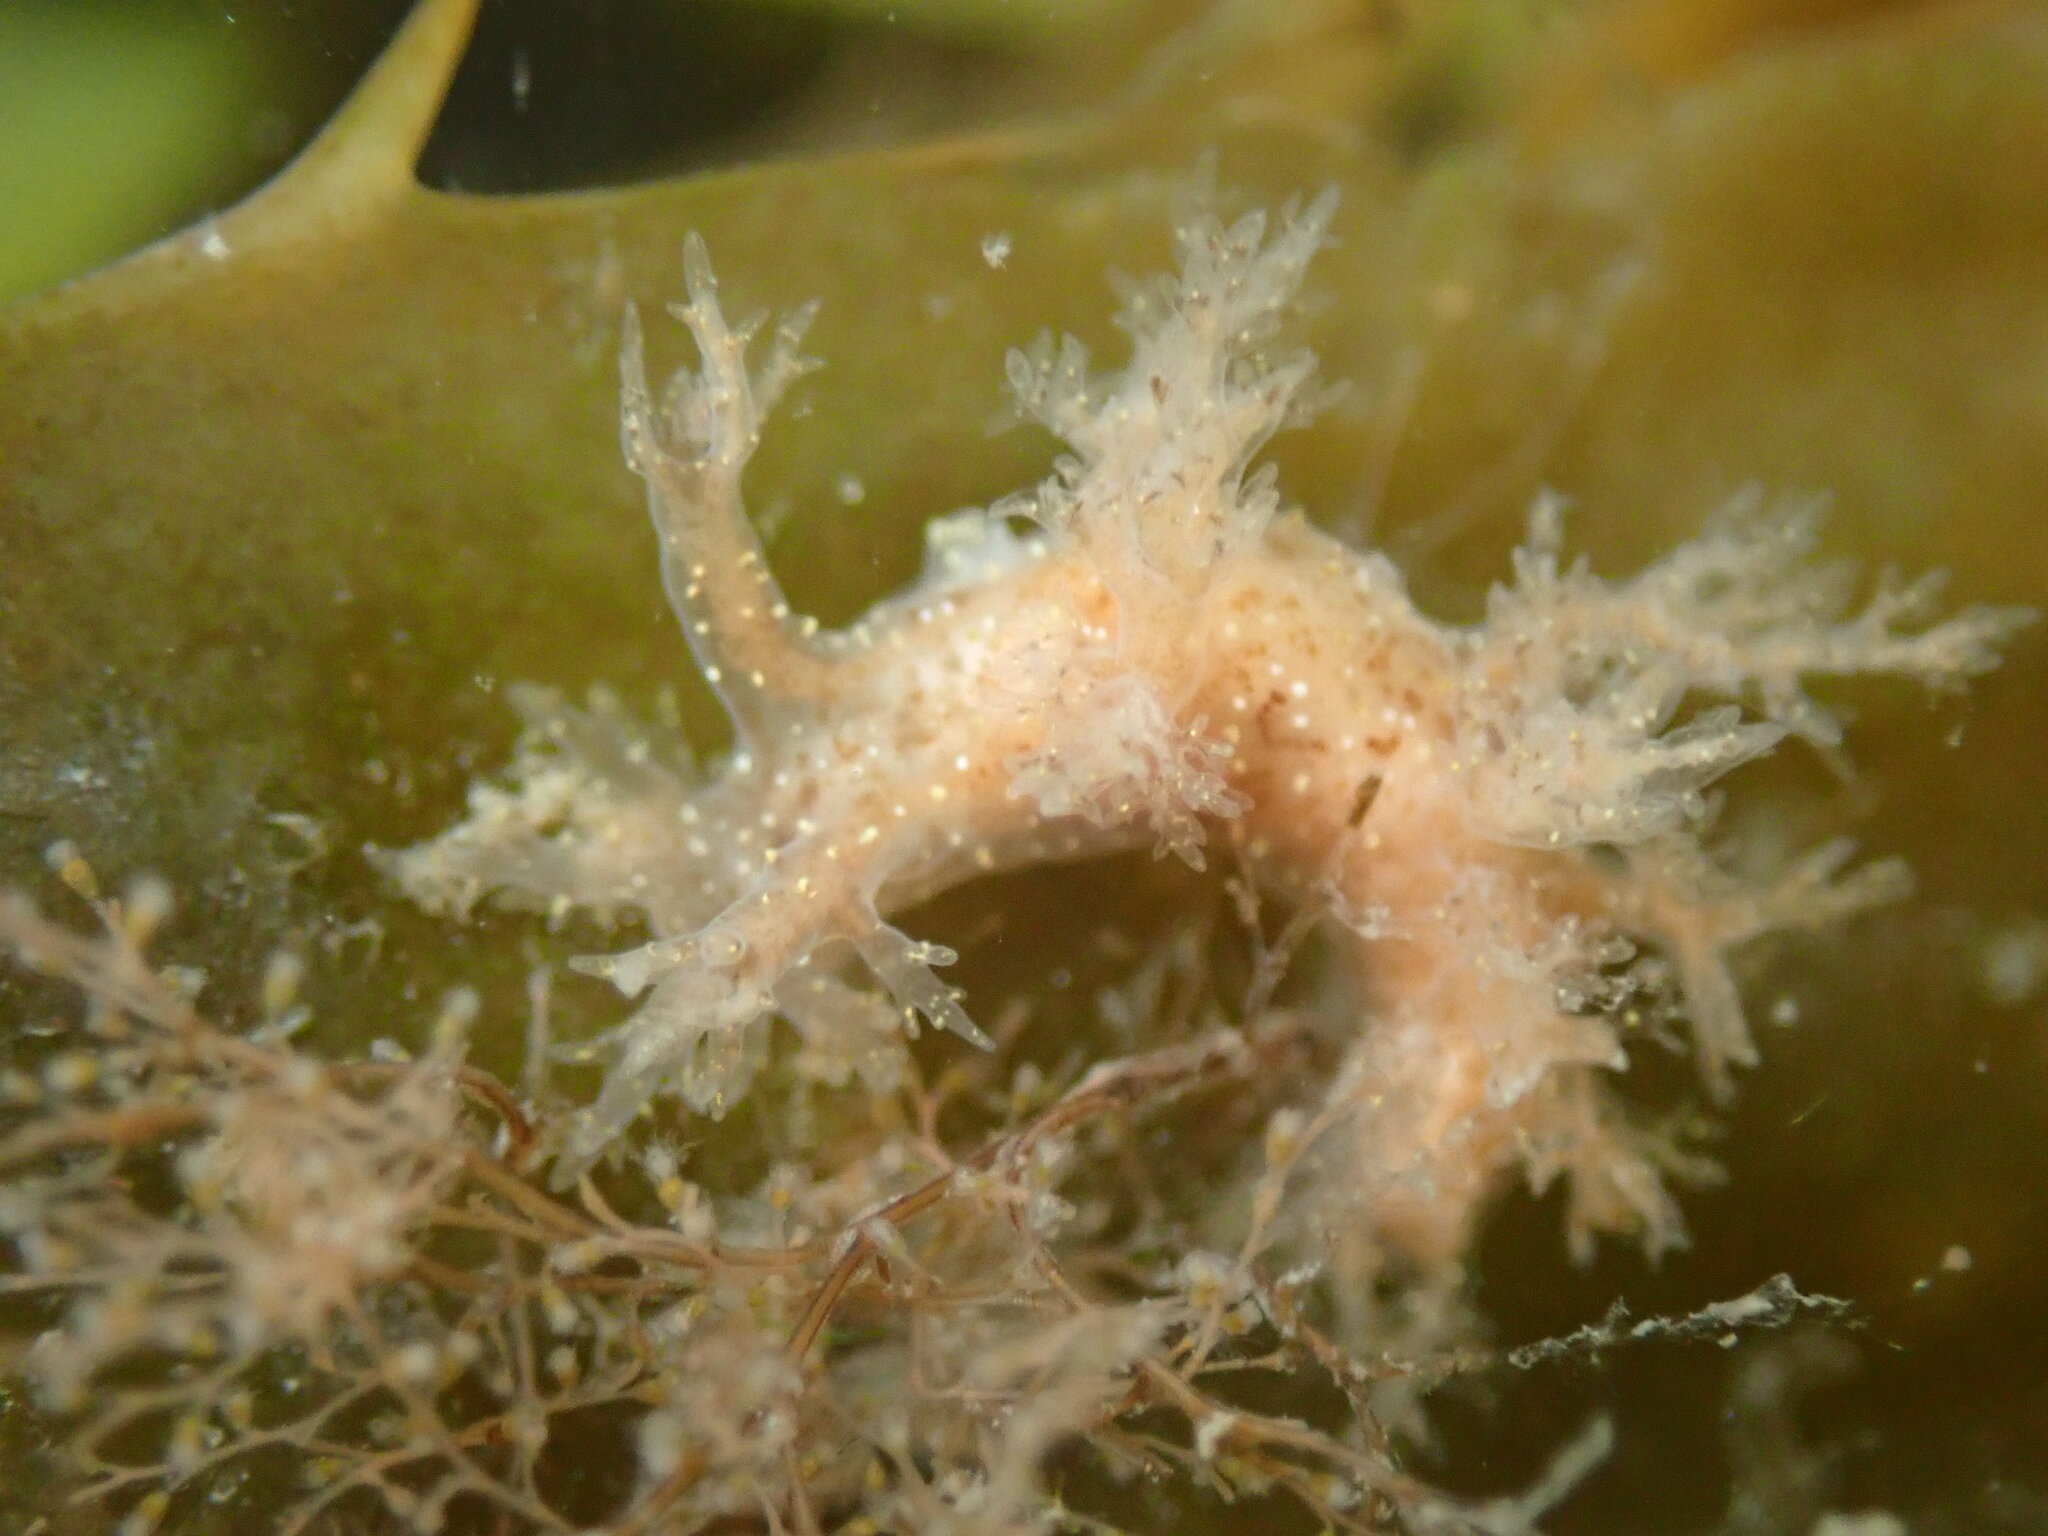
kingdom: Animalia
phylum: Mollusca
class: Gastropoda
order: Nudibranchia
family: Dendronotidae
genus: Dendronotus
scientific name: Dendronotus venustus
